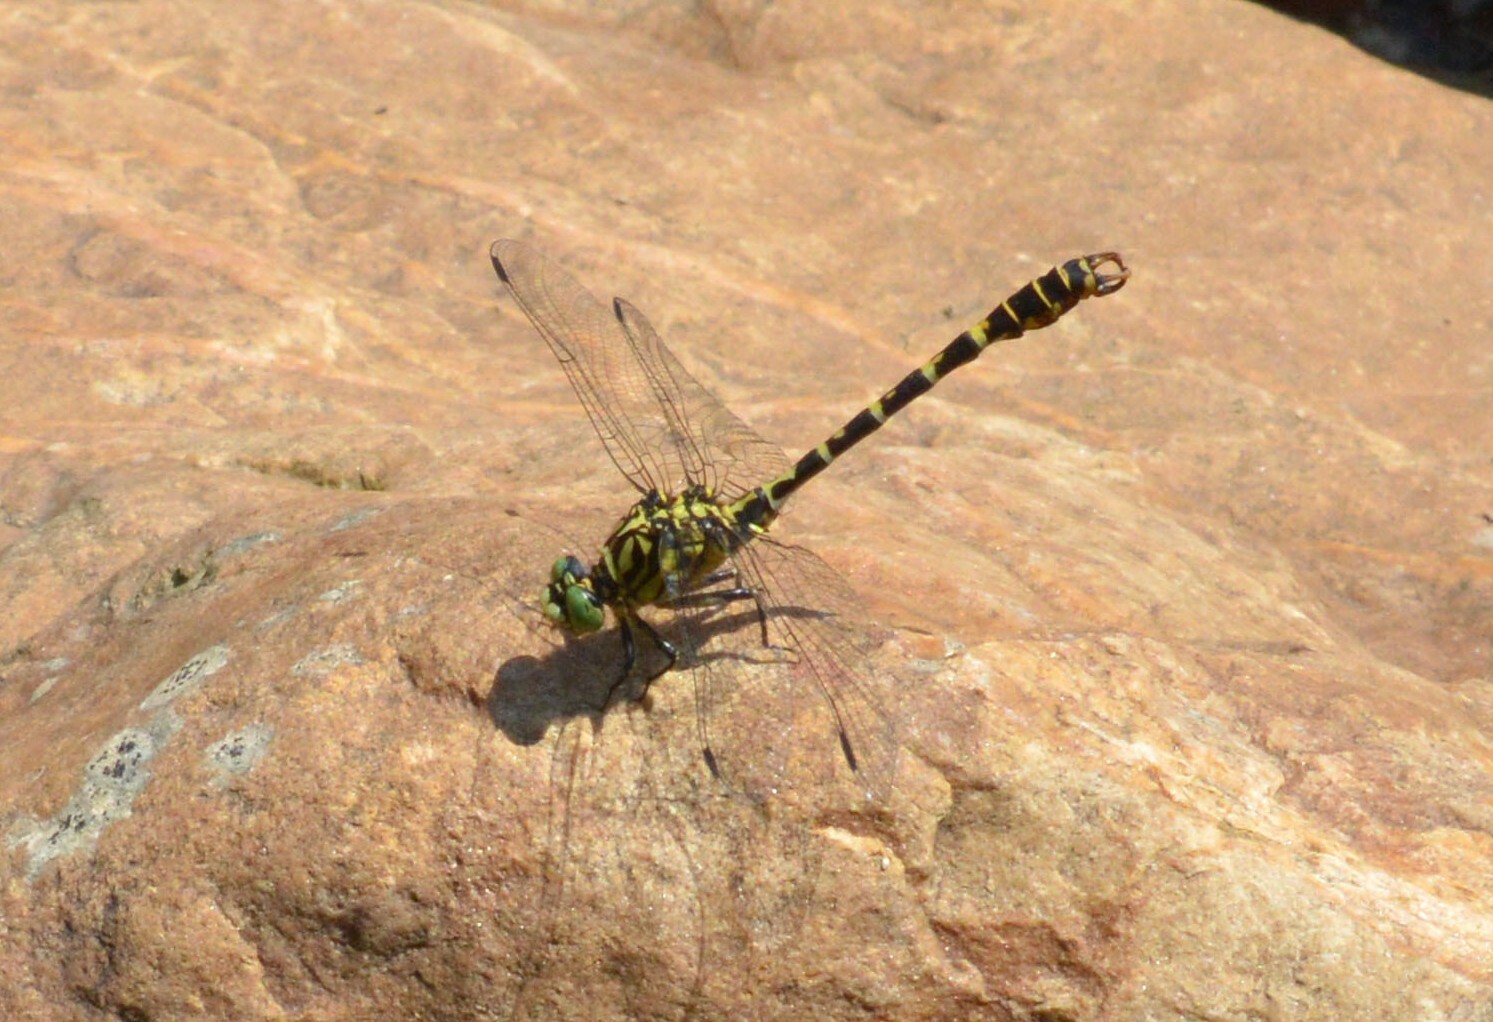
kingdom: Animalia
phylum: Arthropoda
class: Insecta
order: Odonata
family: Gomphidae
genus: Onychogomphus
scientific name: Onychogomphus forcipatus
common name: Small pincertail
